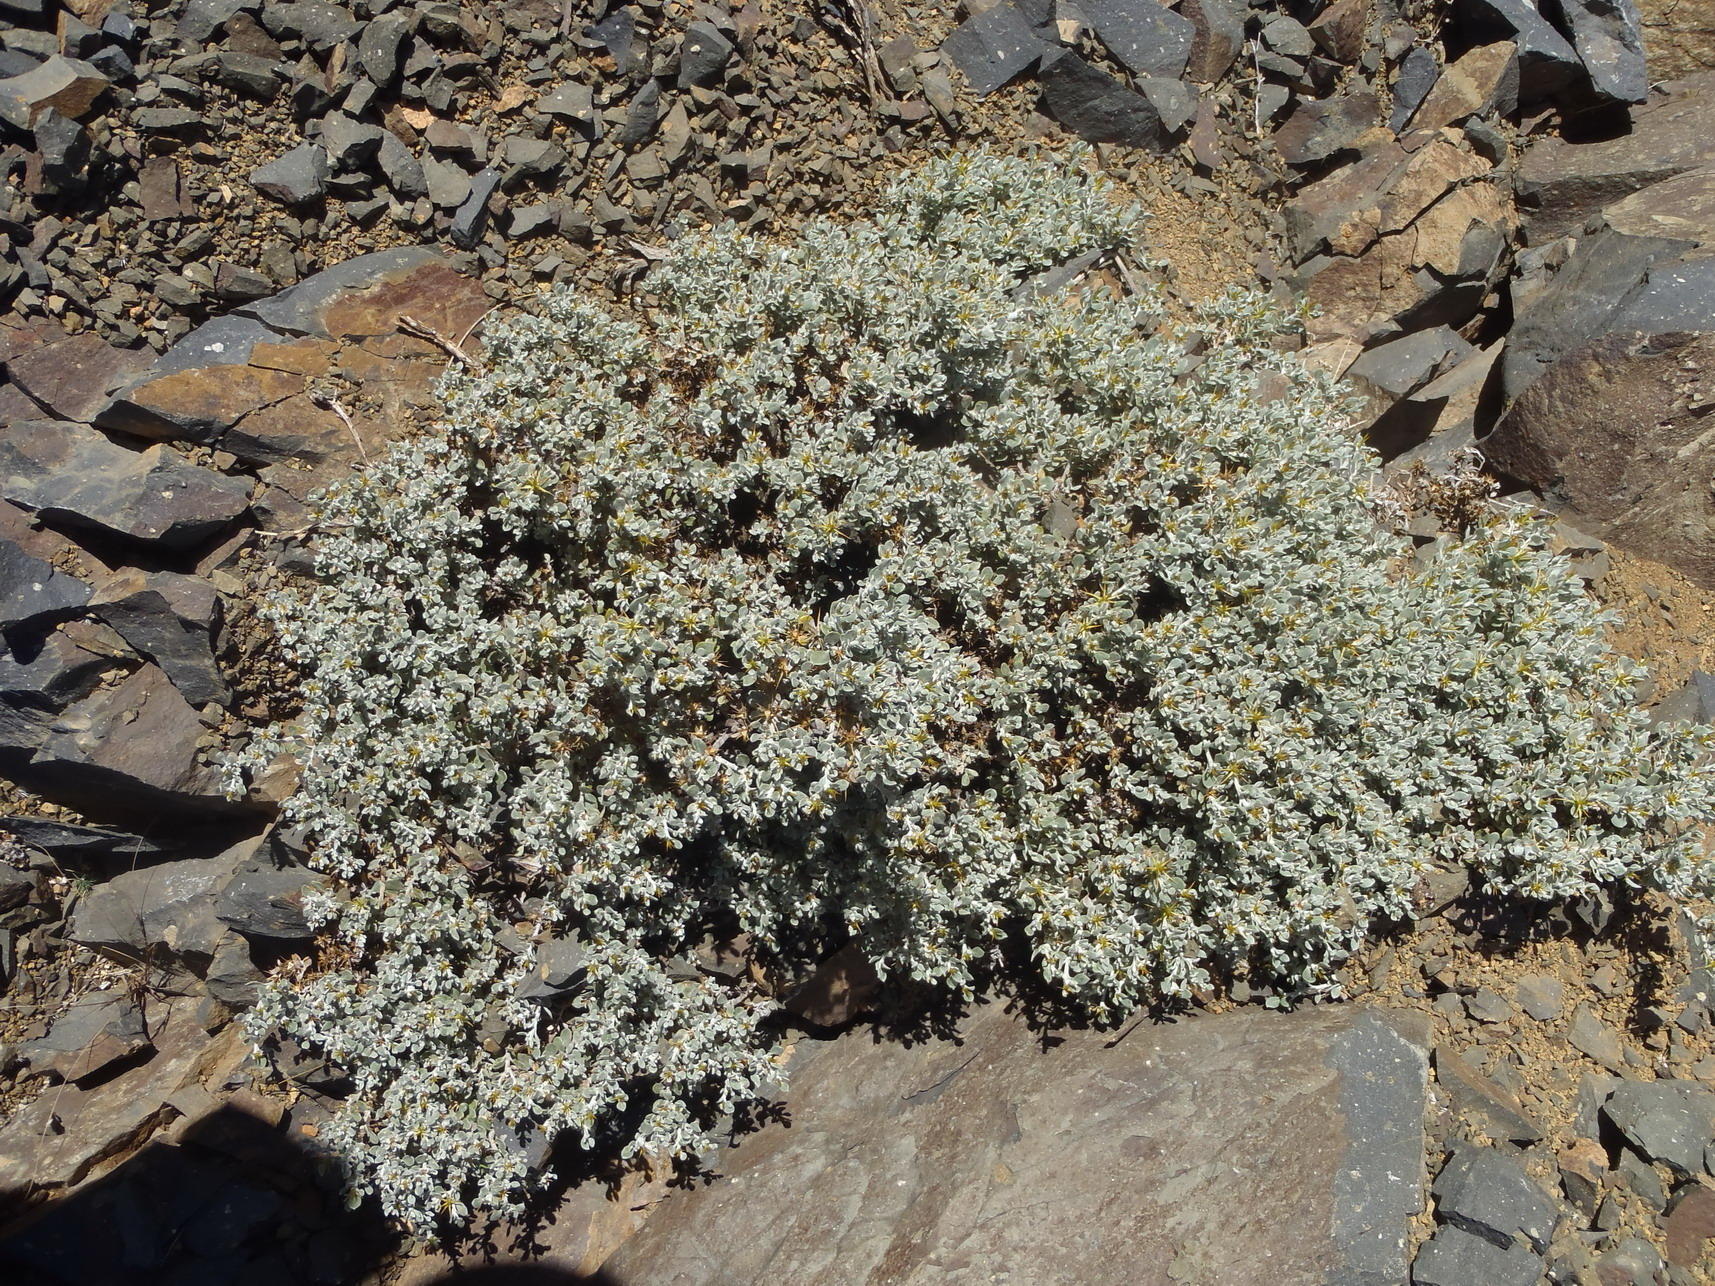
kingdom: Plantae
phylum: Tracheophyta
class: Magnoliopsida
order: Asterales
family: Asteraceae
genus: Macledium
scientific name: Macledium spinosum
